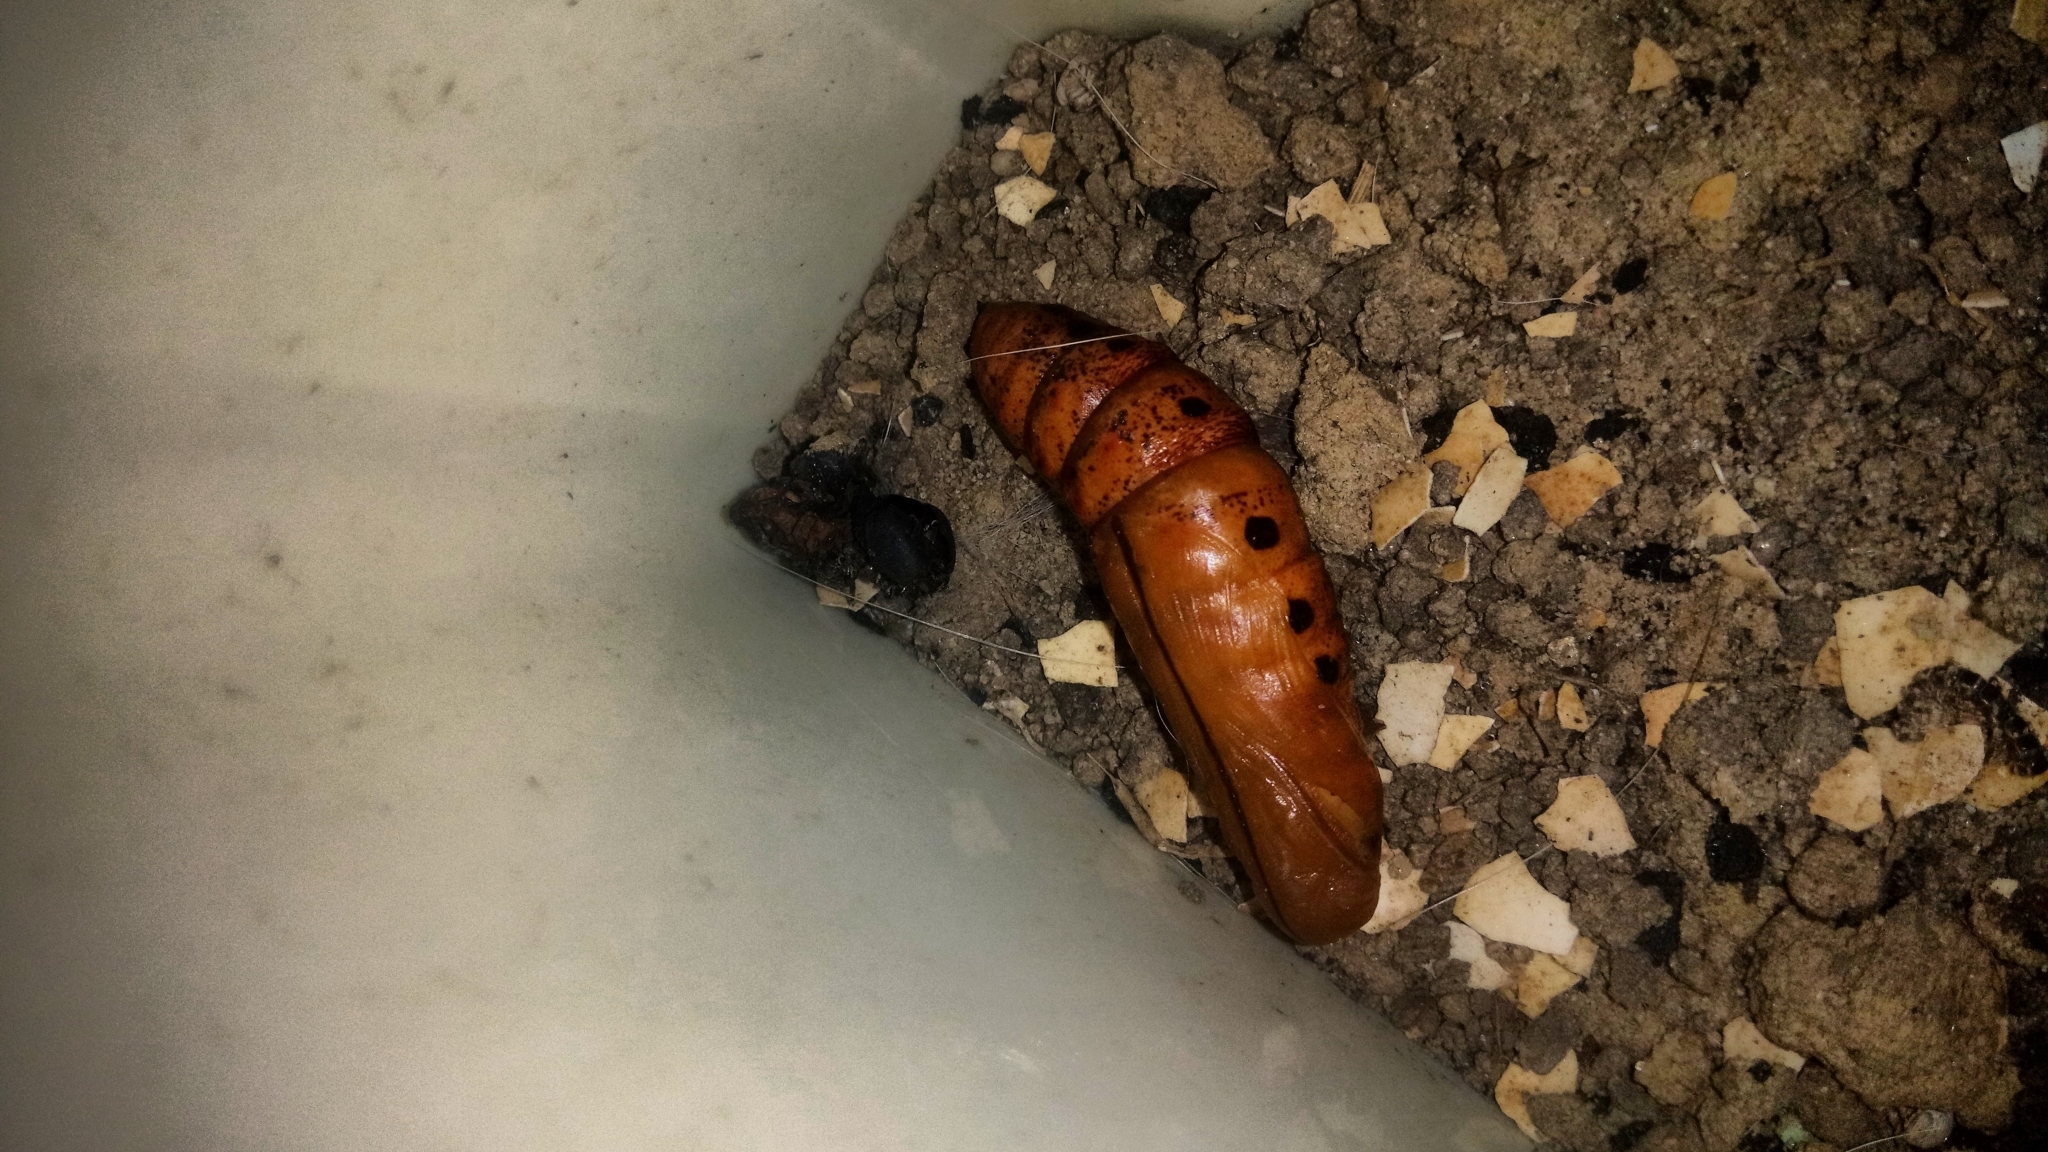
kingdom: Animalia
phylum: Arthropoda
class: Insecta
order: Lepidoptera
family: Sphingidae
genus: Daphnis
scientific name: Daphnis nerii
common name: Oleander hawk-moth
